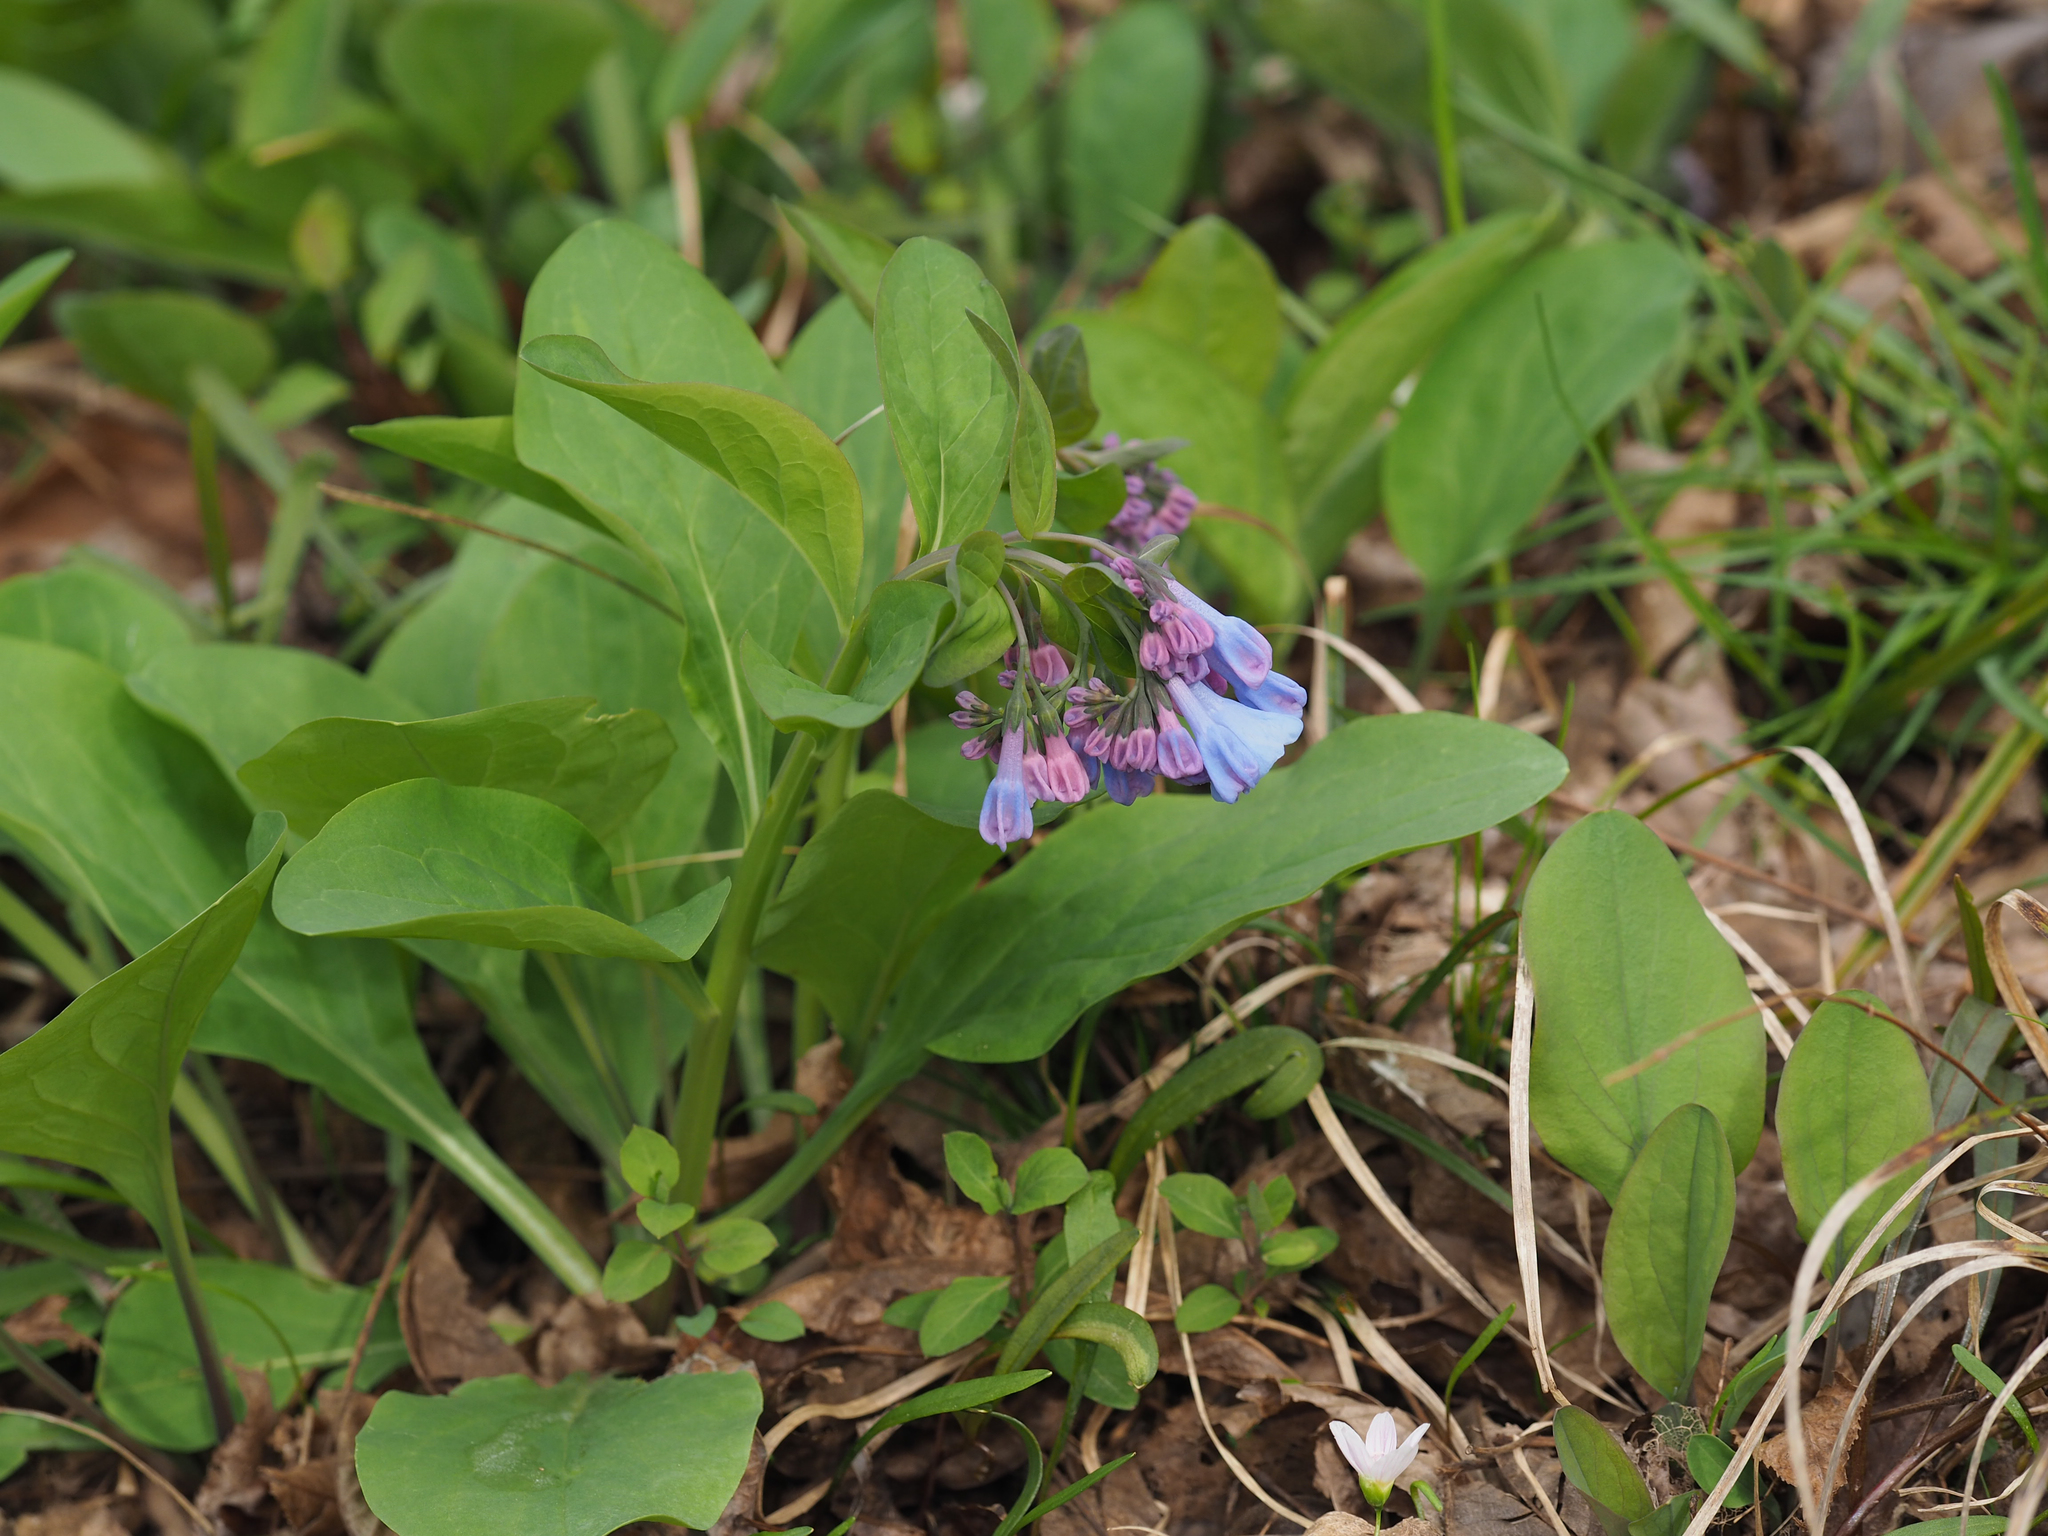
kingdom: Plantae
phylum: Tracheophyta
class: Magnoliopsida
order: Boraginales
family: Boraginaceae
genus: Mertensia
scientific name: Mertensia virginica
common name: Virginia bluebells
